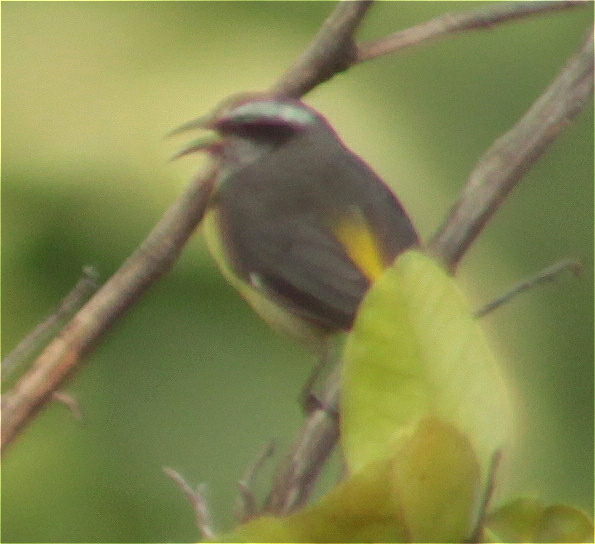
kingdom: Animalia
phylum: Chordata
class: Aves
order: Passeriformes
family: Thraupidae
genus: Coereba
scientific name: Coereba flaveola
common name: Bananaquit
